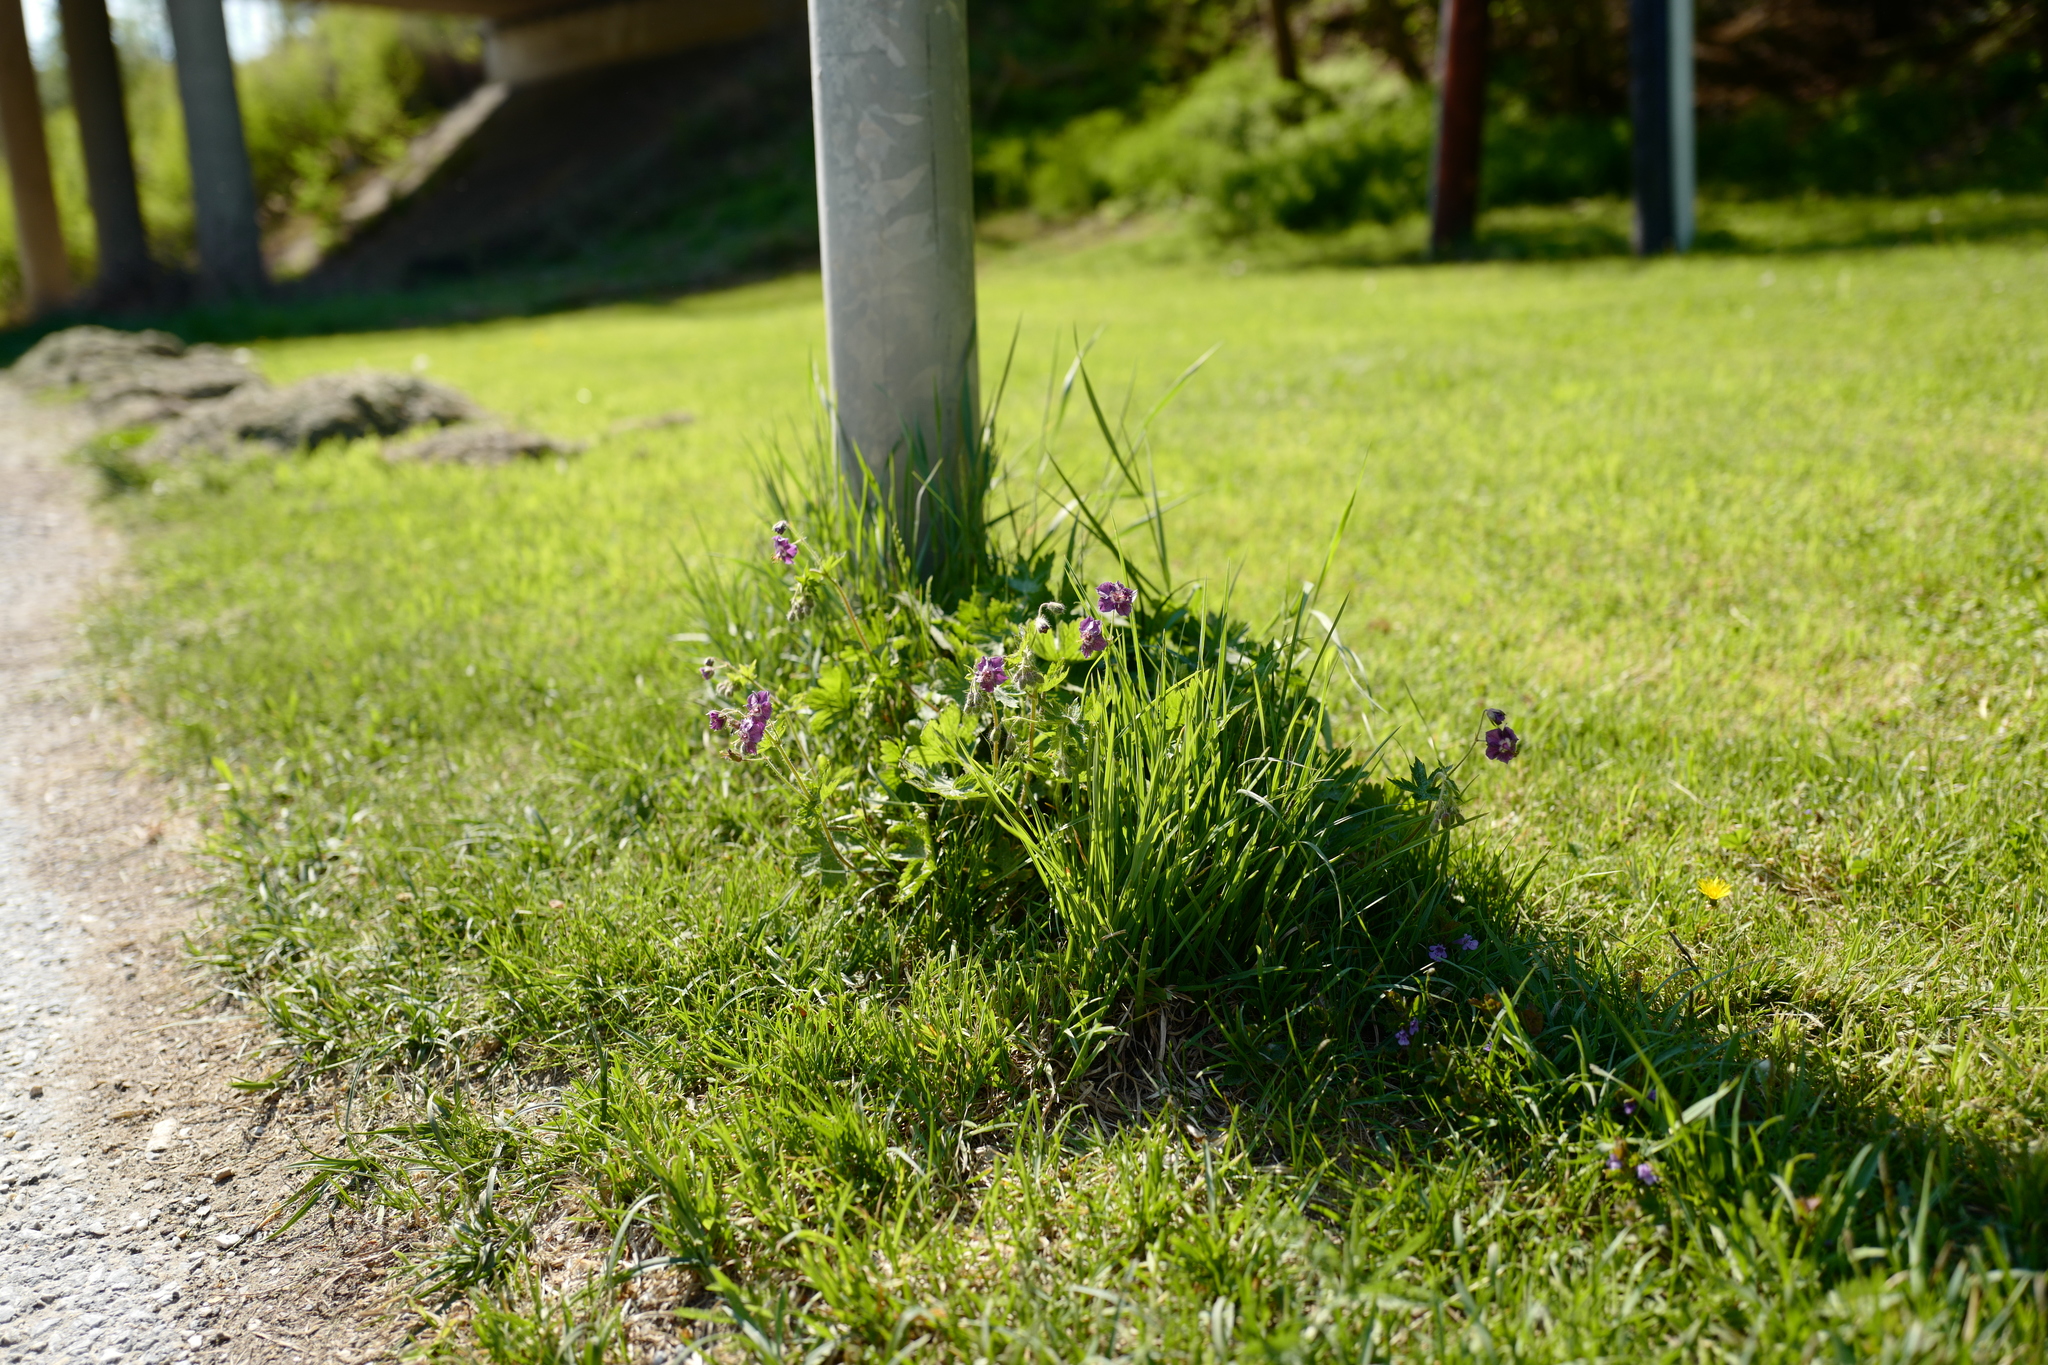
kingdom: Plantae
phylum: Tracheophyta
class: Magnoliopsida
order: Geraniales
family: Geraniaceae
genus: Geranium
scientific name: Geranium phaeum
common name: Dusky crane's-bill
